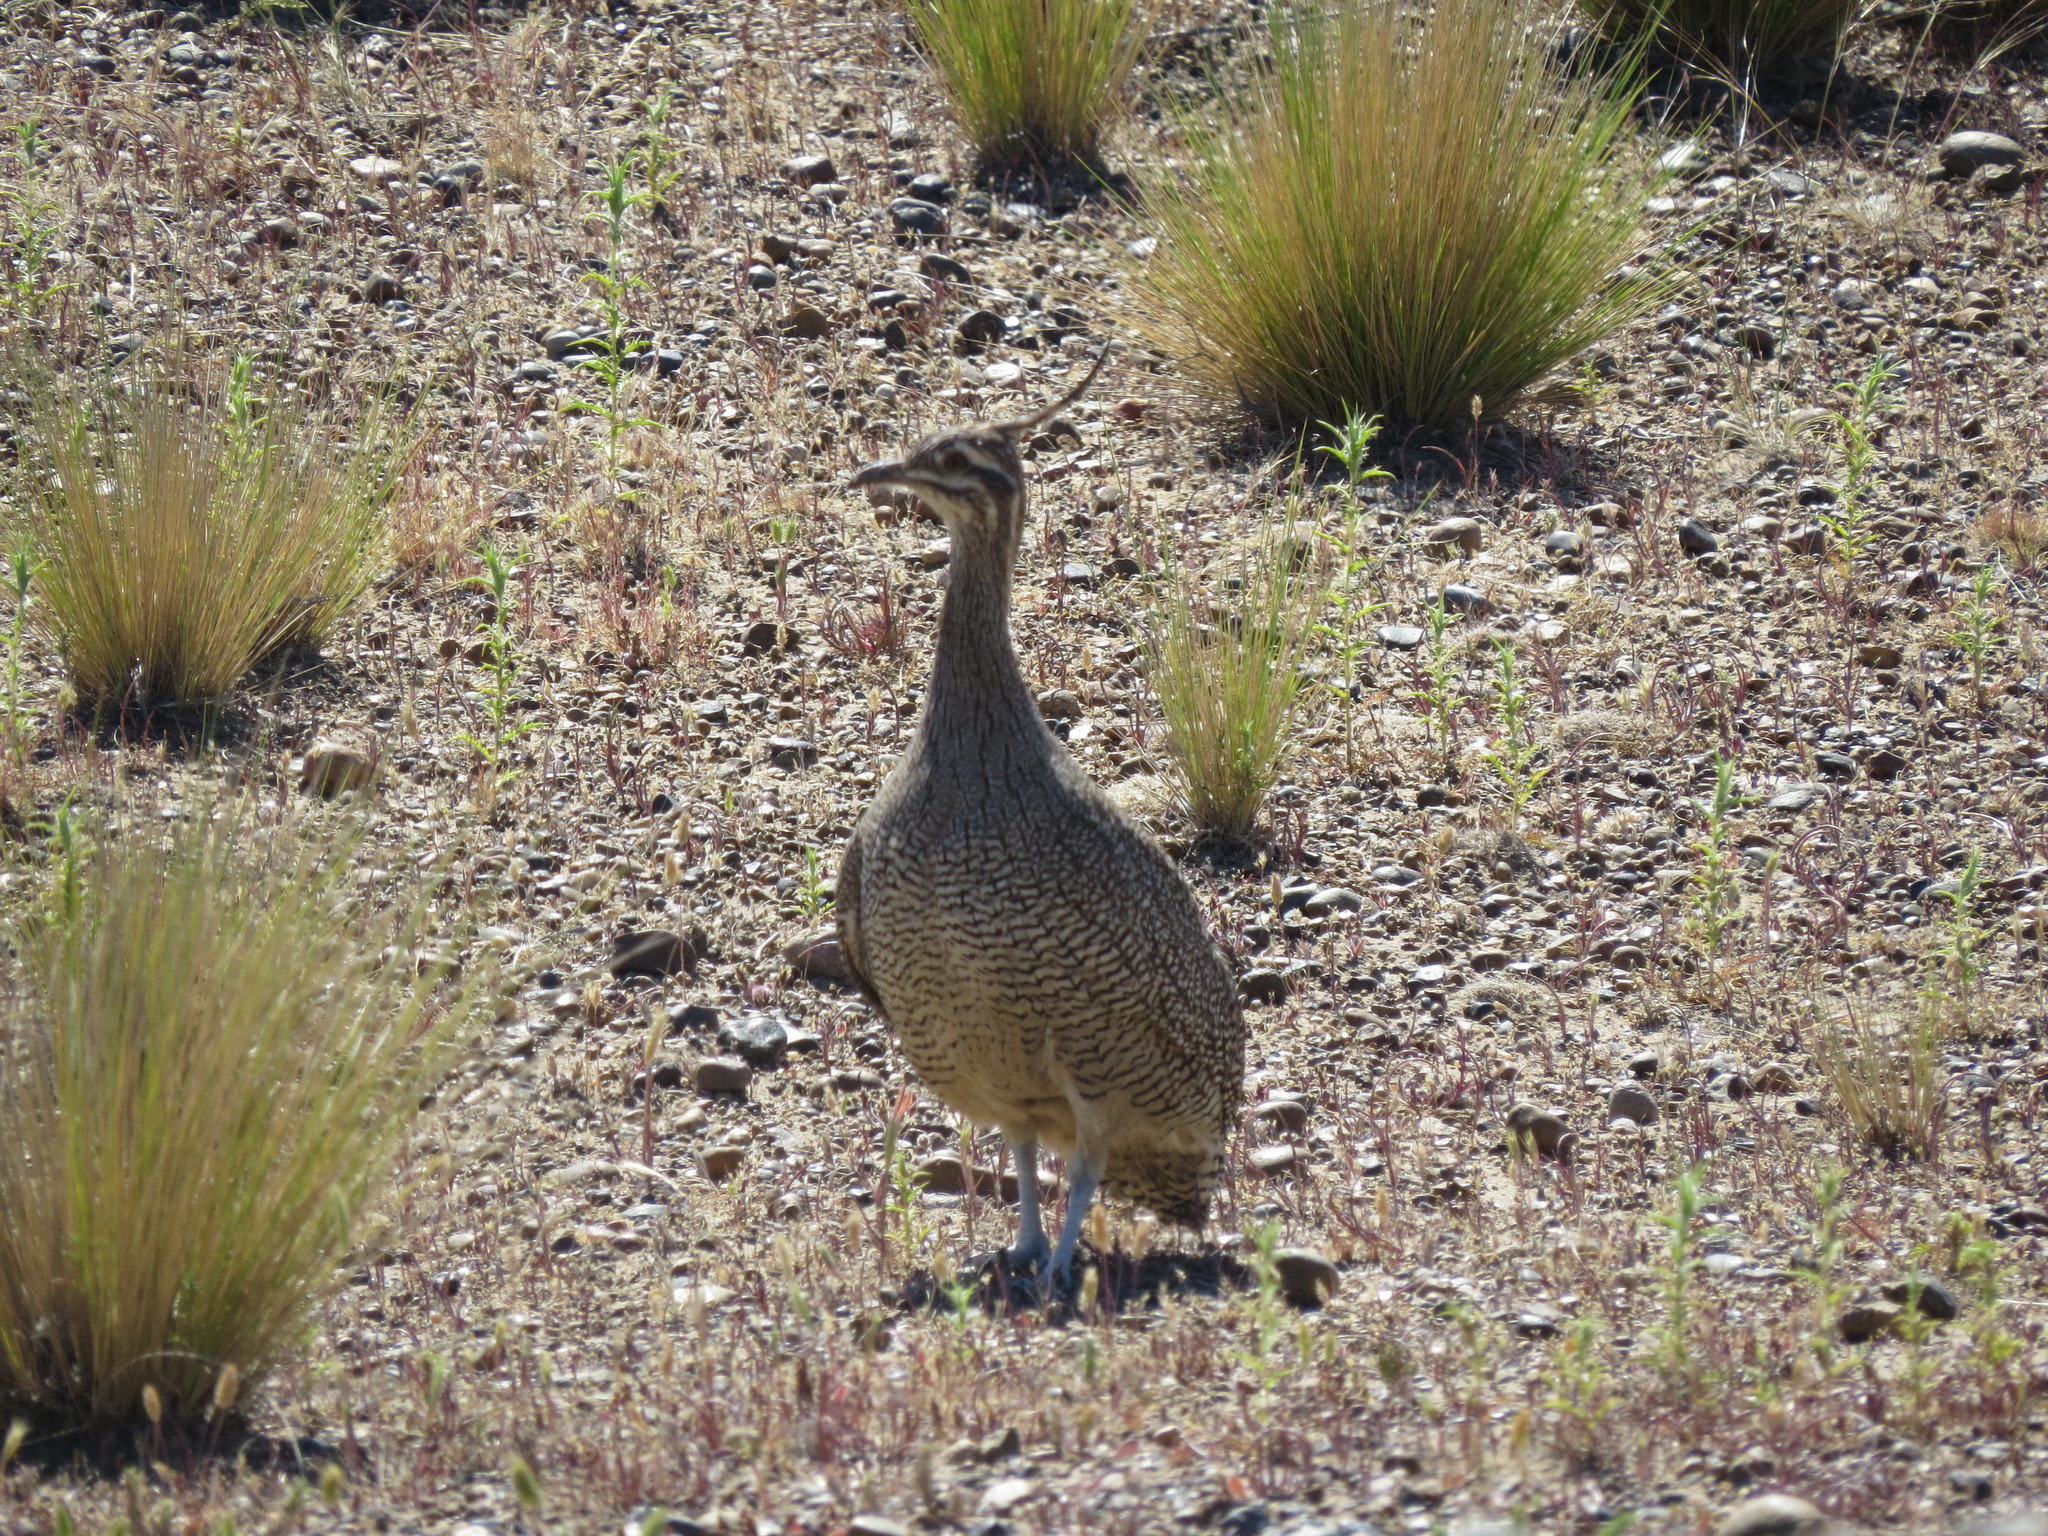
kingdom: Animalia
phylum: Chordata
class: Aves
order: Tinamiformes
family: Tinamidae
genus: Eudromia
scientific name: Eudromia elegans
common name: Elegant crested tinamou
